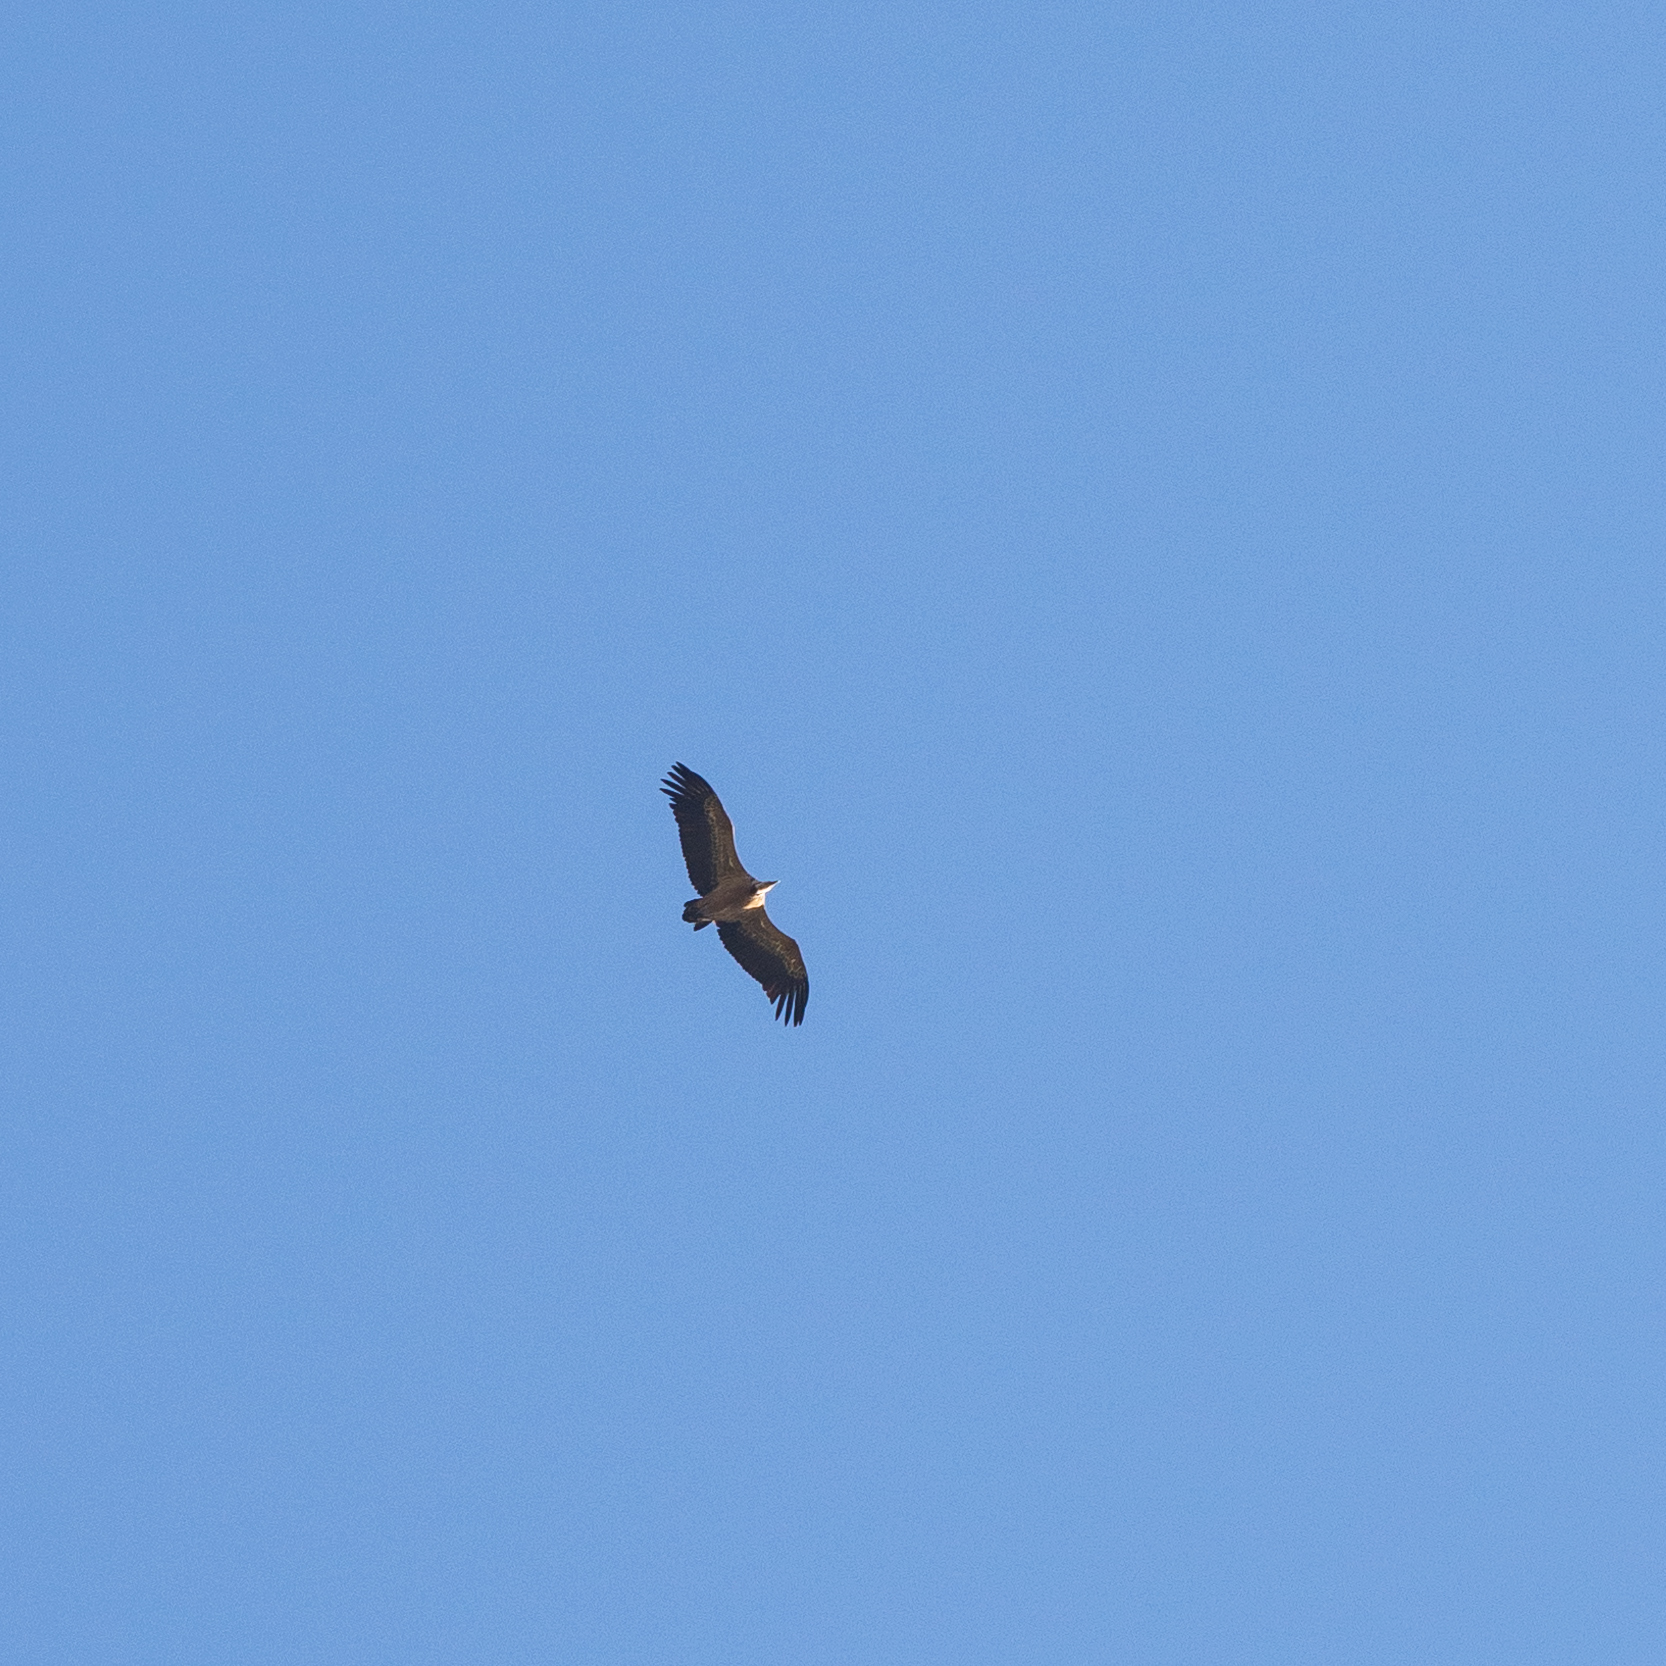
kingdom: Animalia
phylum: Chordata
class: Aves
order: Accipitriformes
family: Accipitridae
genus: Gyps
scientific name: Gyps fulvus
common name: Griffon vulture
